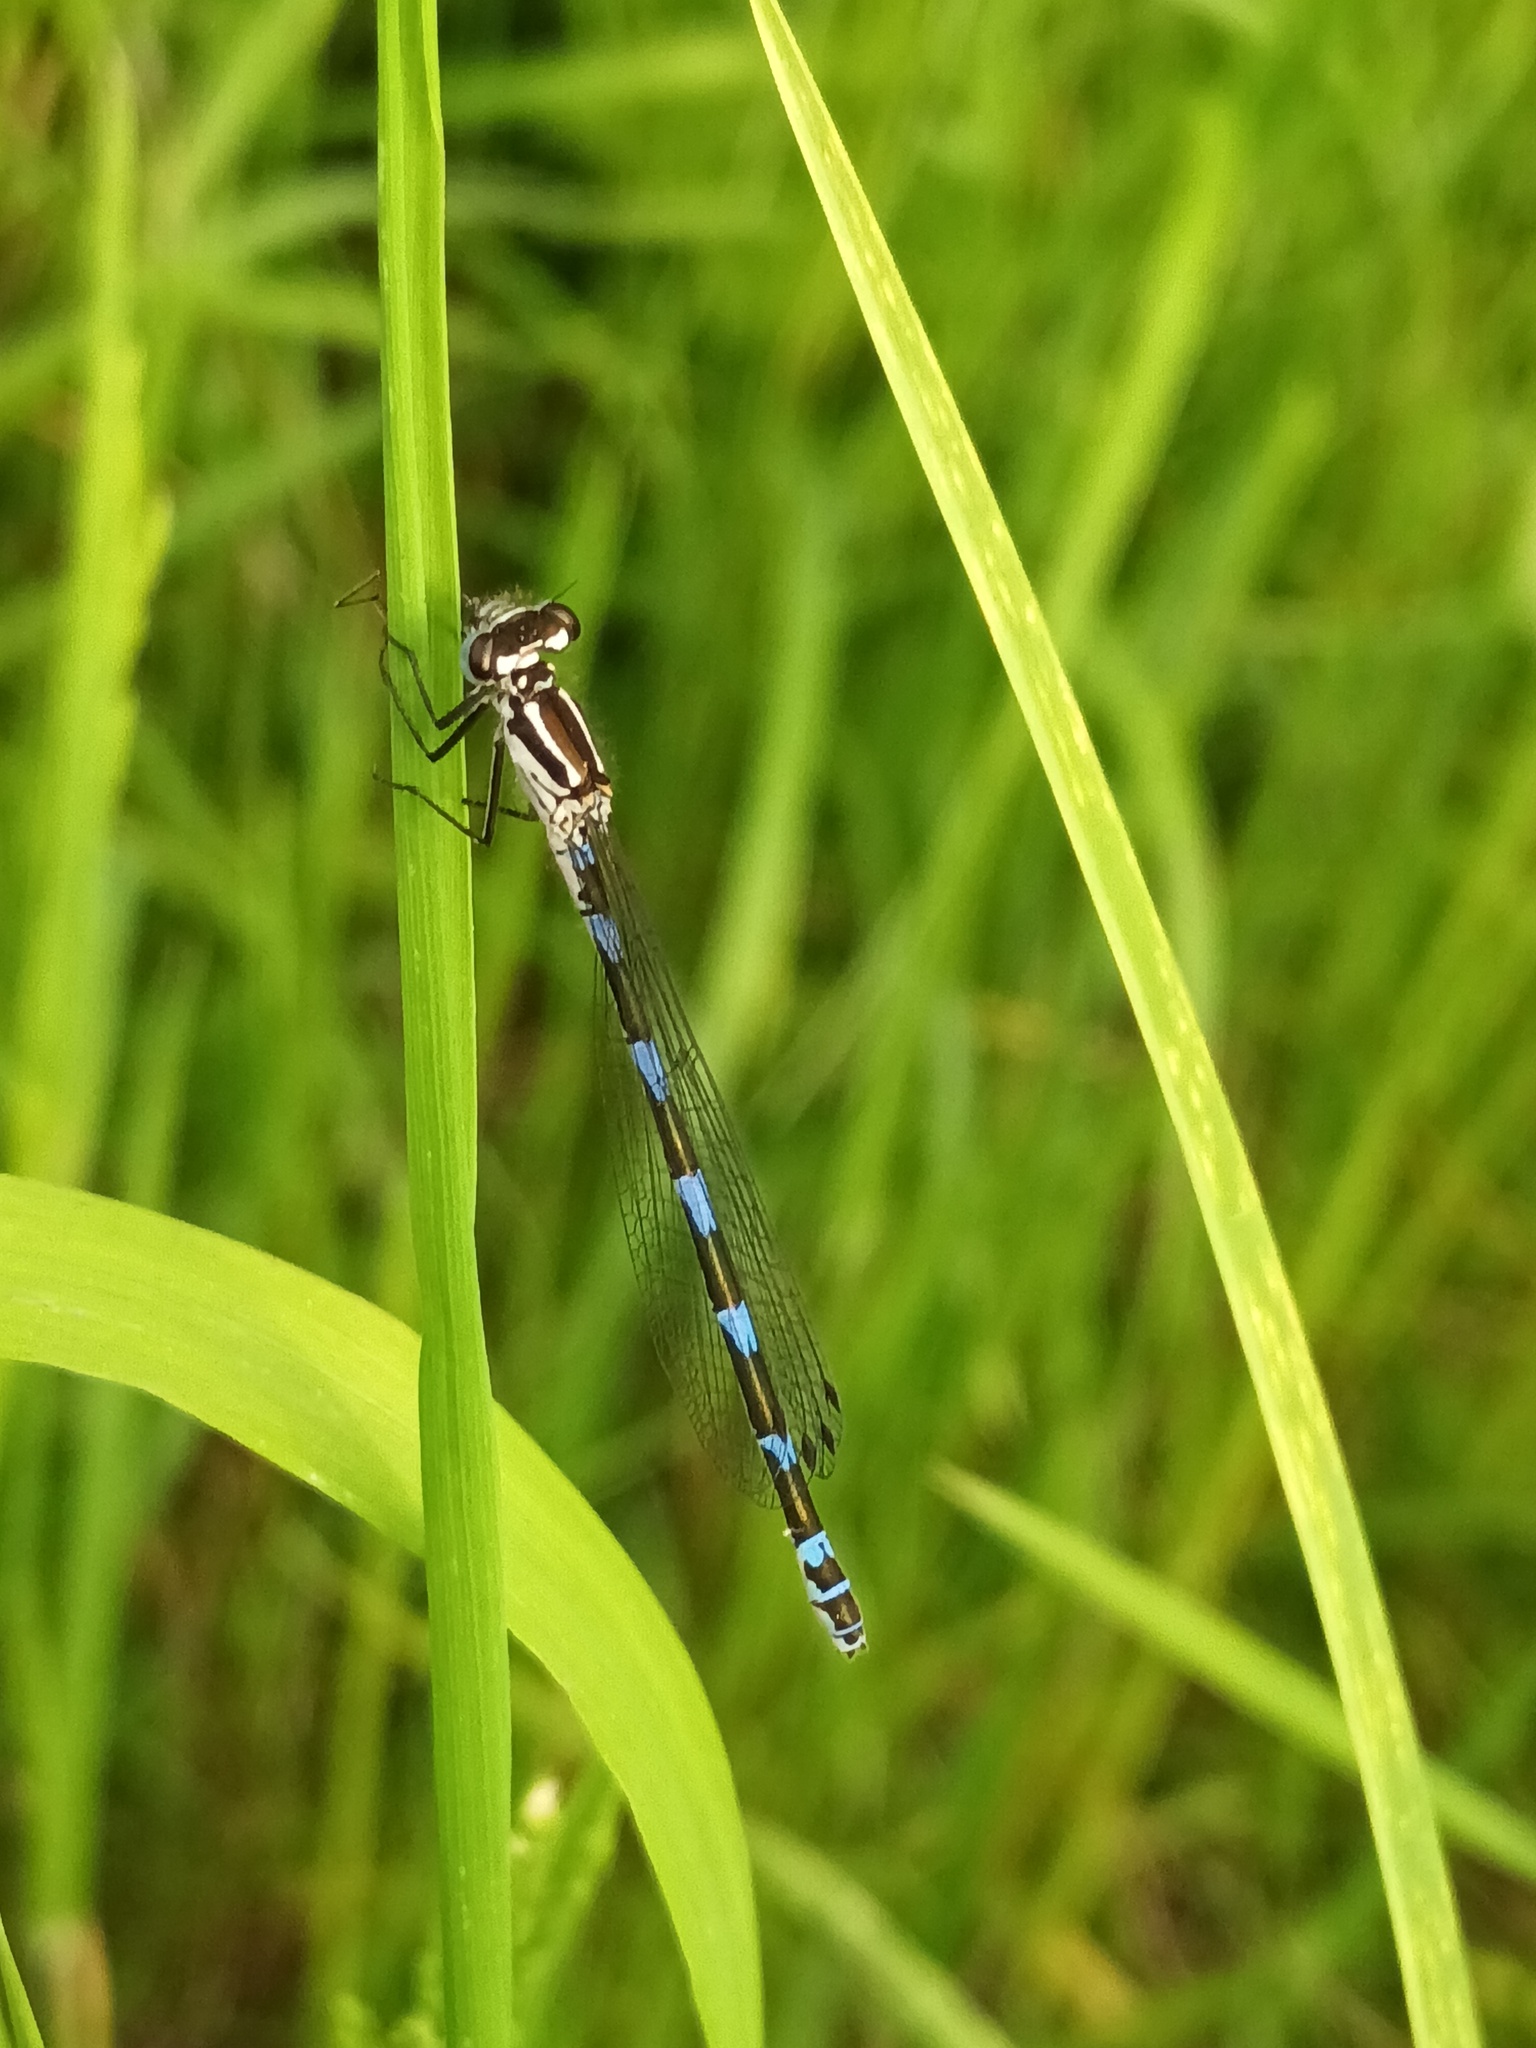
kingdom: Animalia
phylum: Arthropoda
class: Insecta
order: Odonata
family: Coenagrionidae
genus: Coenagrion
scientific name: Coenagrion pulchellum
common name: Variable bluet
